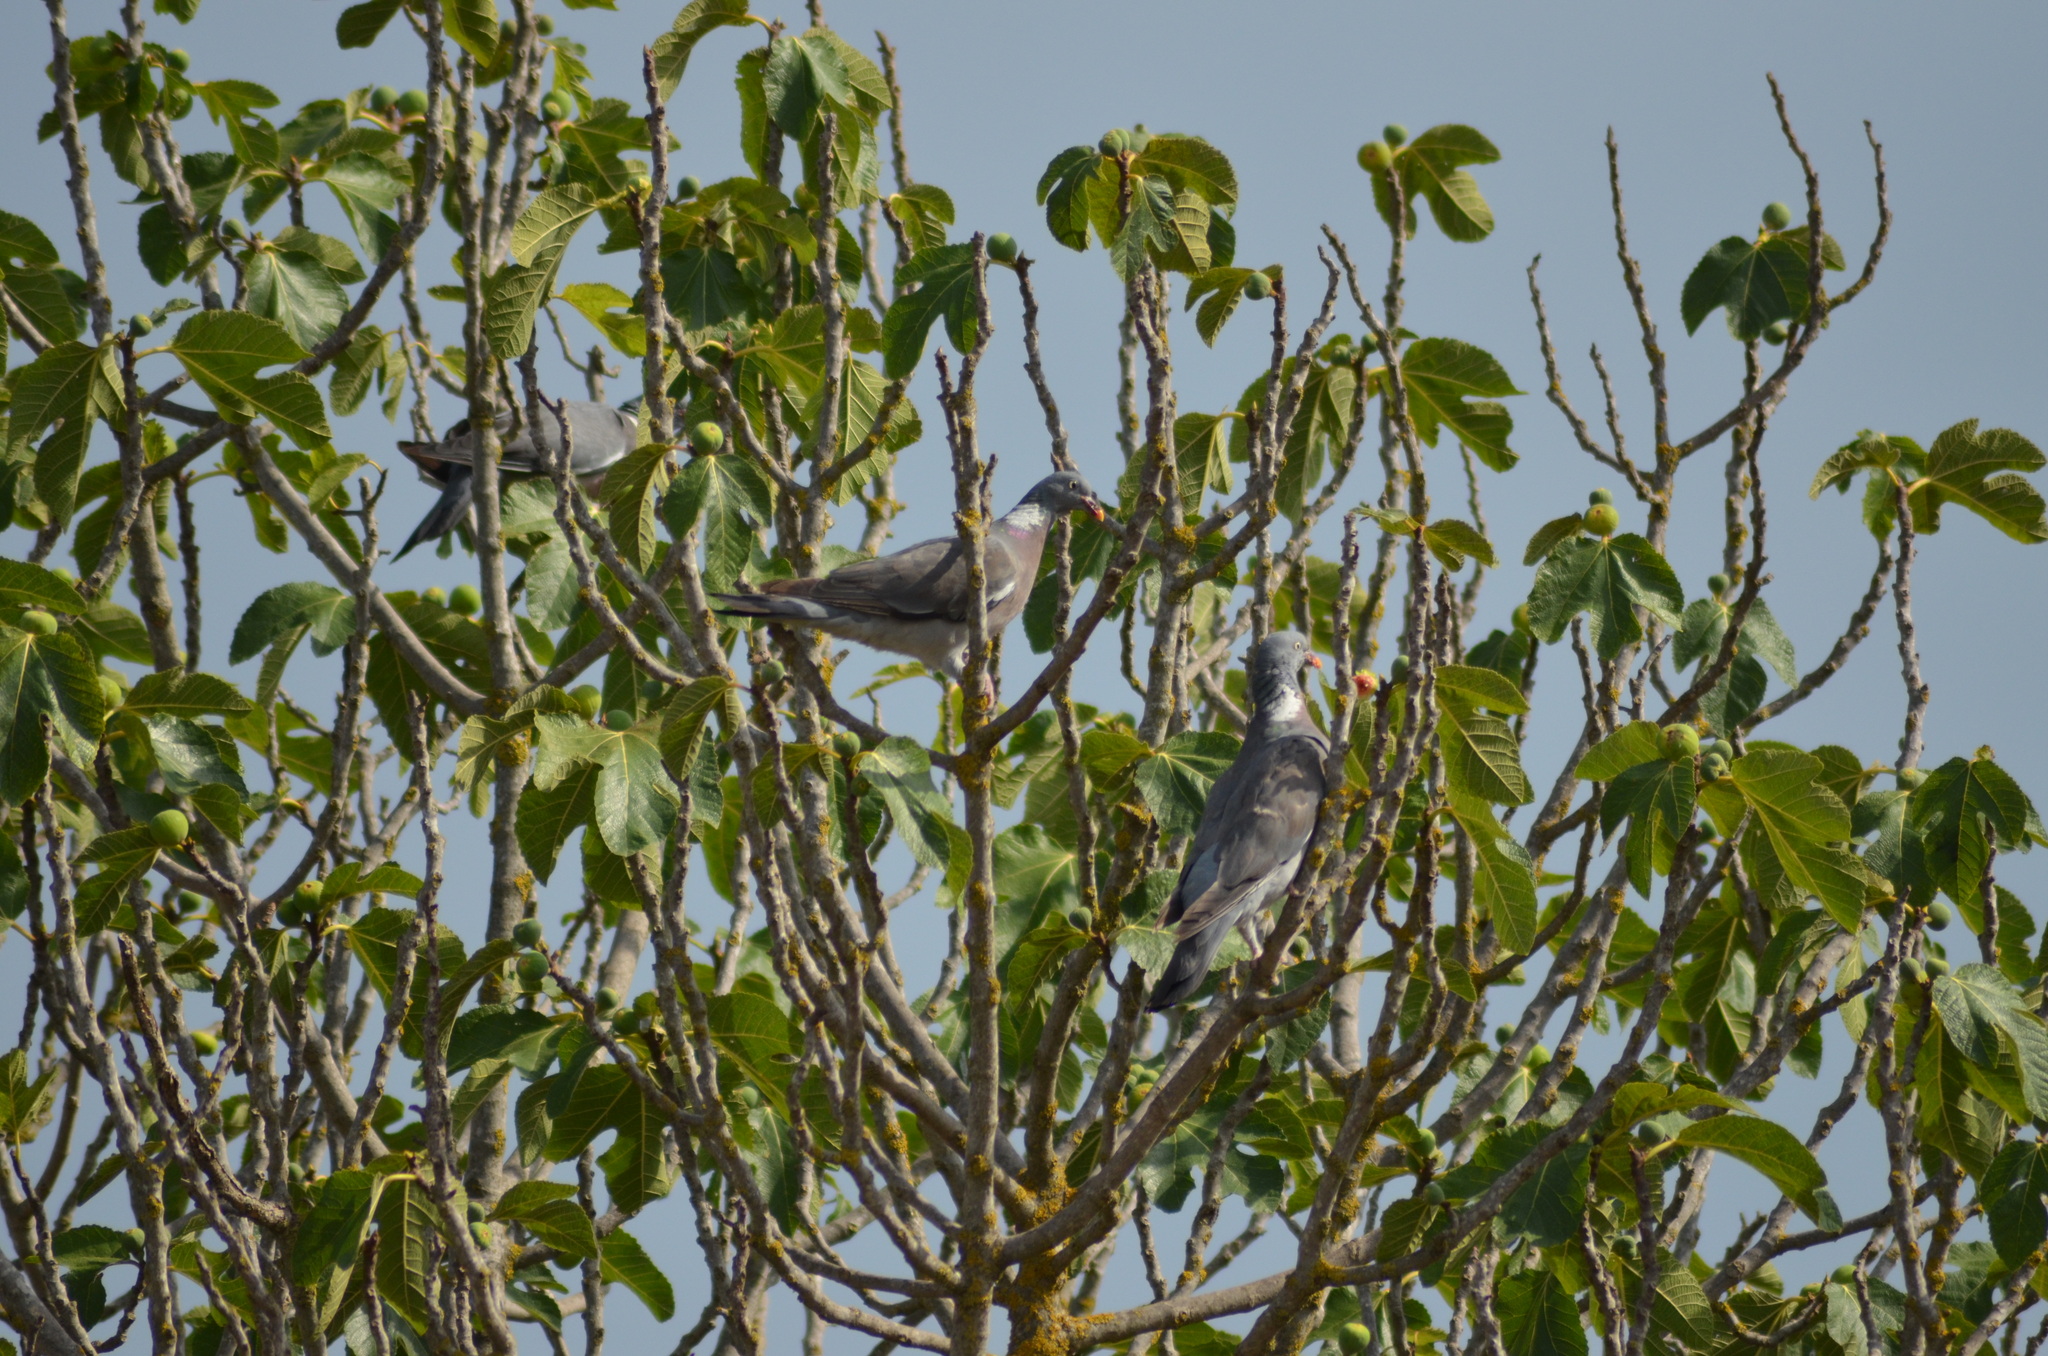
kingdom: Animalia
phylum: Chordata
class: Aves
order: Columbiformes
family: Columbidae
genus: Columba
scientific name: Columba palumbus
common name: Common wood pigeon
